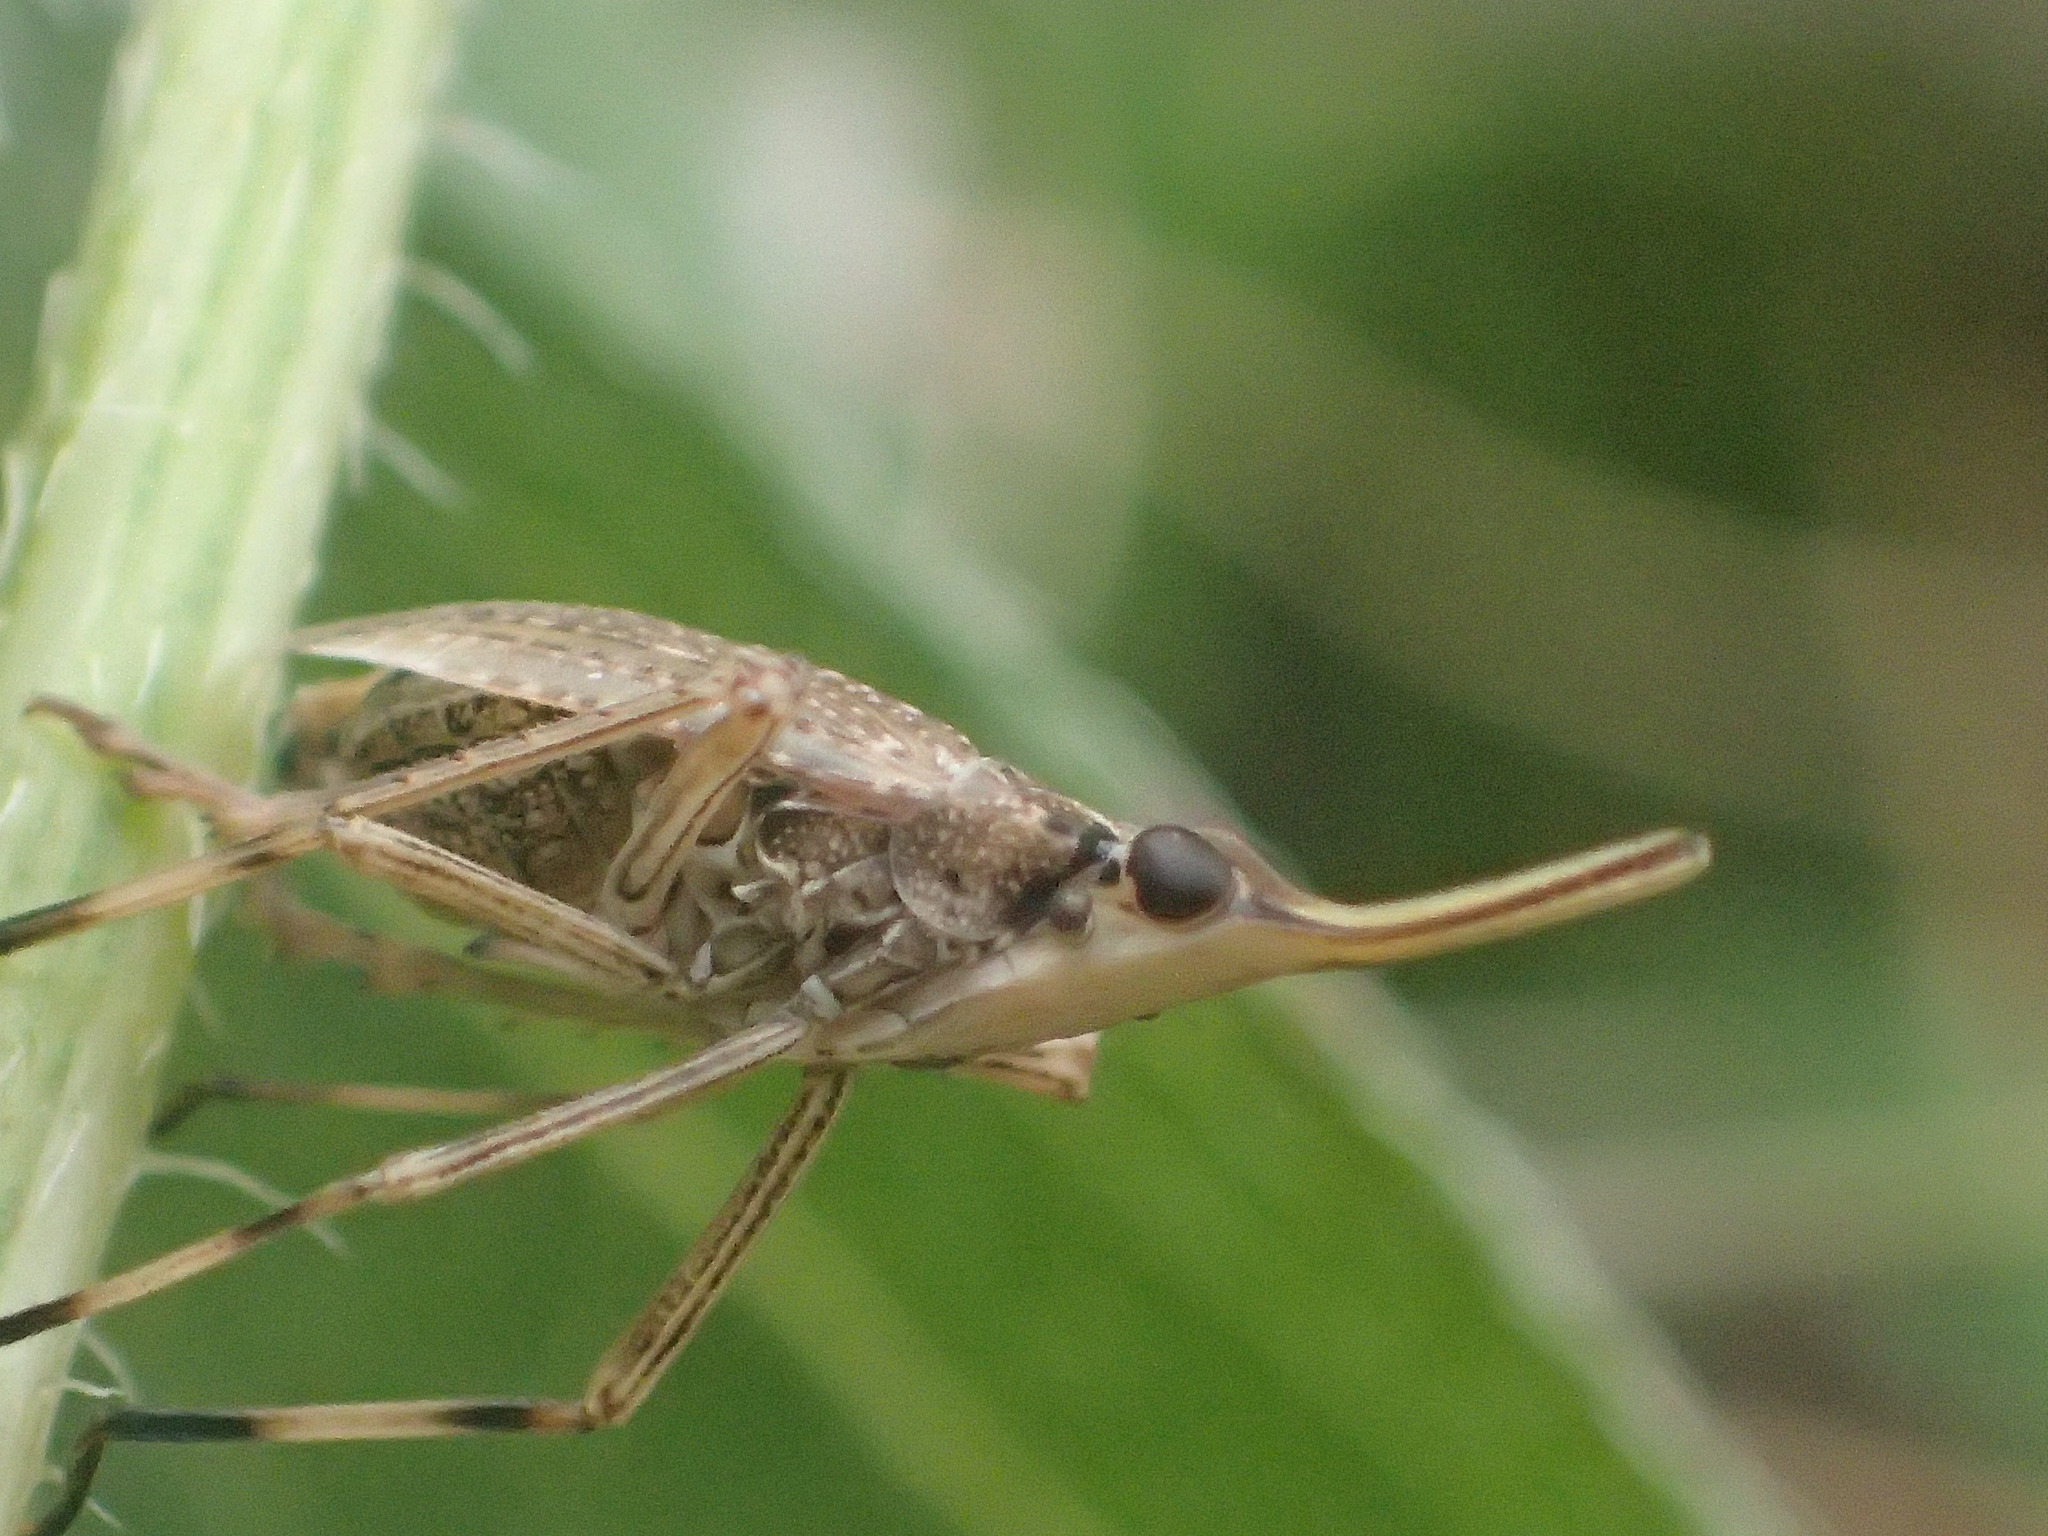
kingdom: Animalia
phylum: Arthropoda
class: Insecta
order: Hemiptera
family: Dictyopharidae
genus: Scolops
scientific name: Scolops sulcipes
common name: Partridge planthopper
